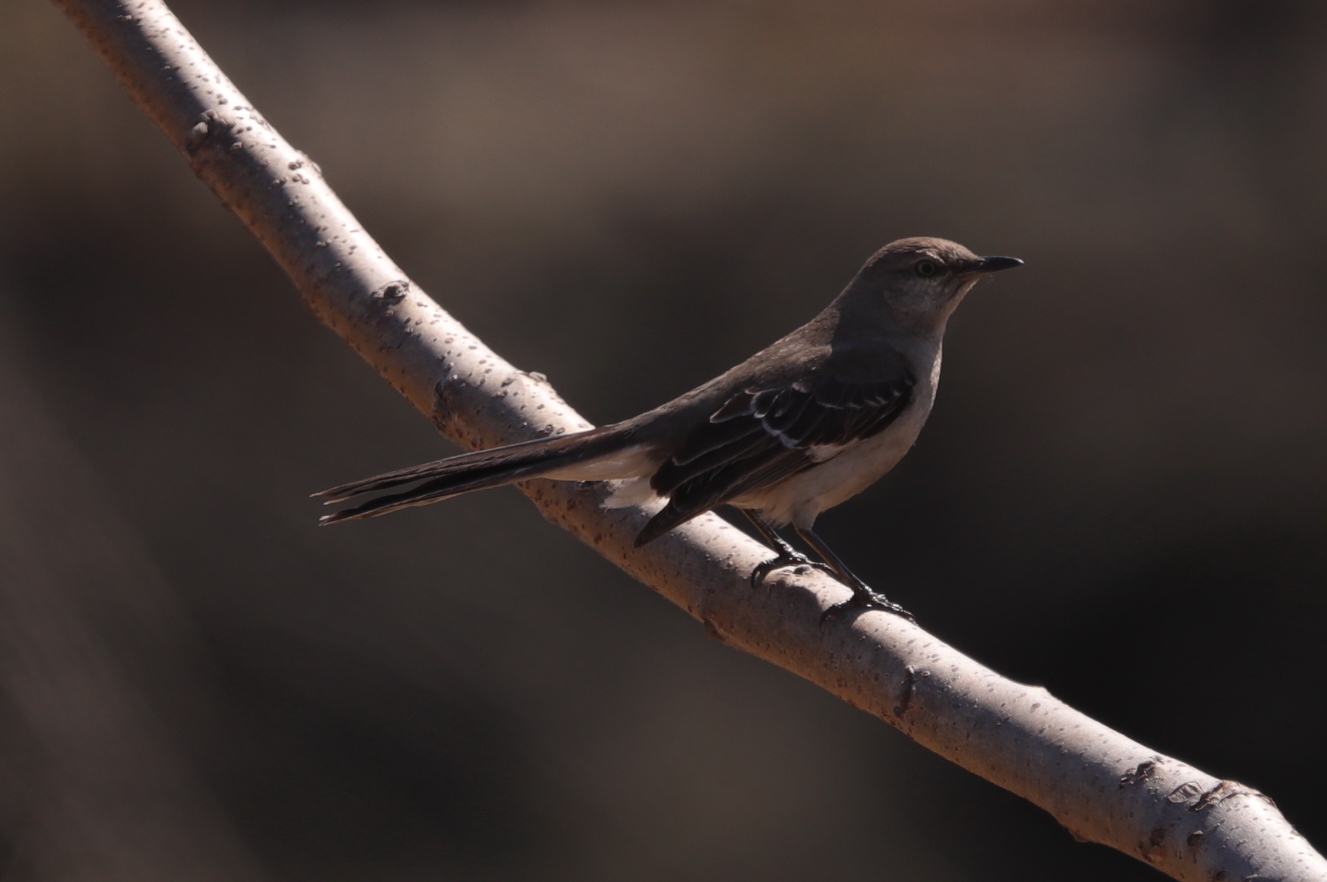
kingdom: Animalia
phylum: Chordata
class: Aves
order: Passeriformes
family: Mimidae
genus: Mimus
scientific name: Mimus polyglottos
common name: Northern mockingbird
